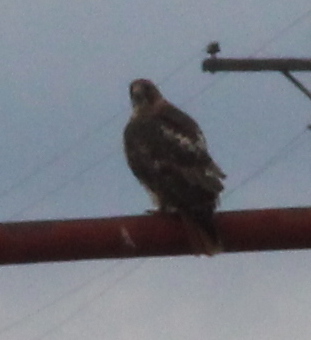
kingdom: Animalia
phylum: Chordata
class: Aves
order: Accipitriformes
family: Accipitridae
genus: Buteo
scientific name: Buteo jamaicensis
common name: Red-tailed hawk
